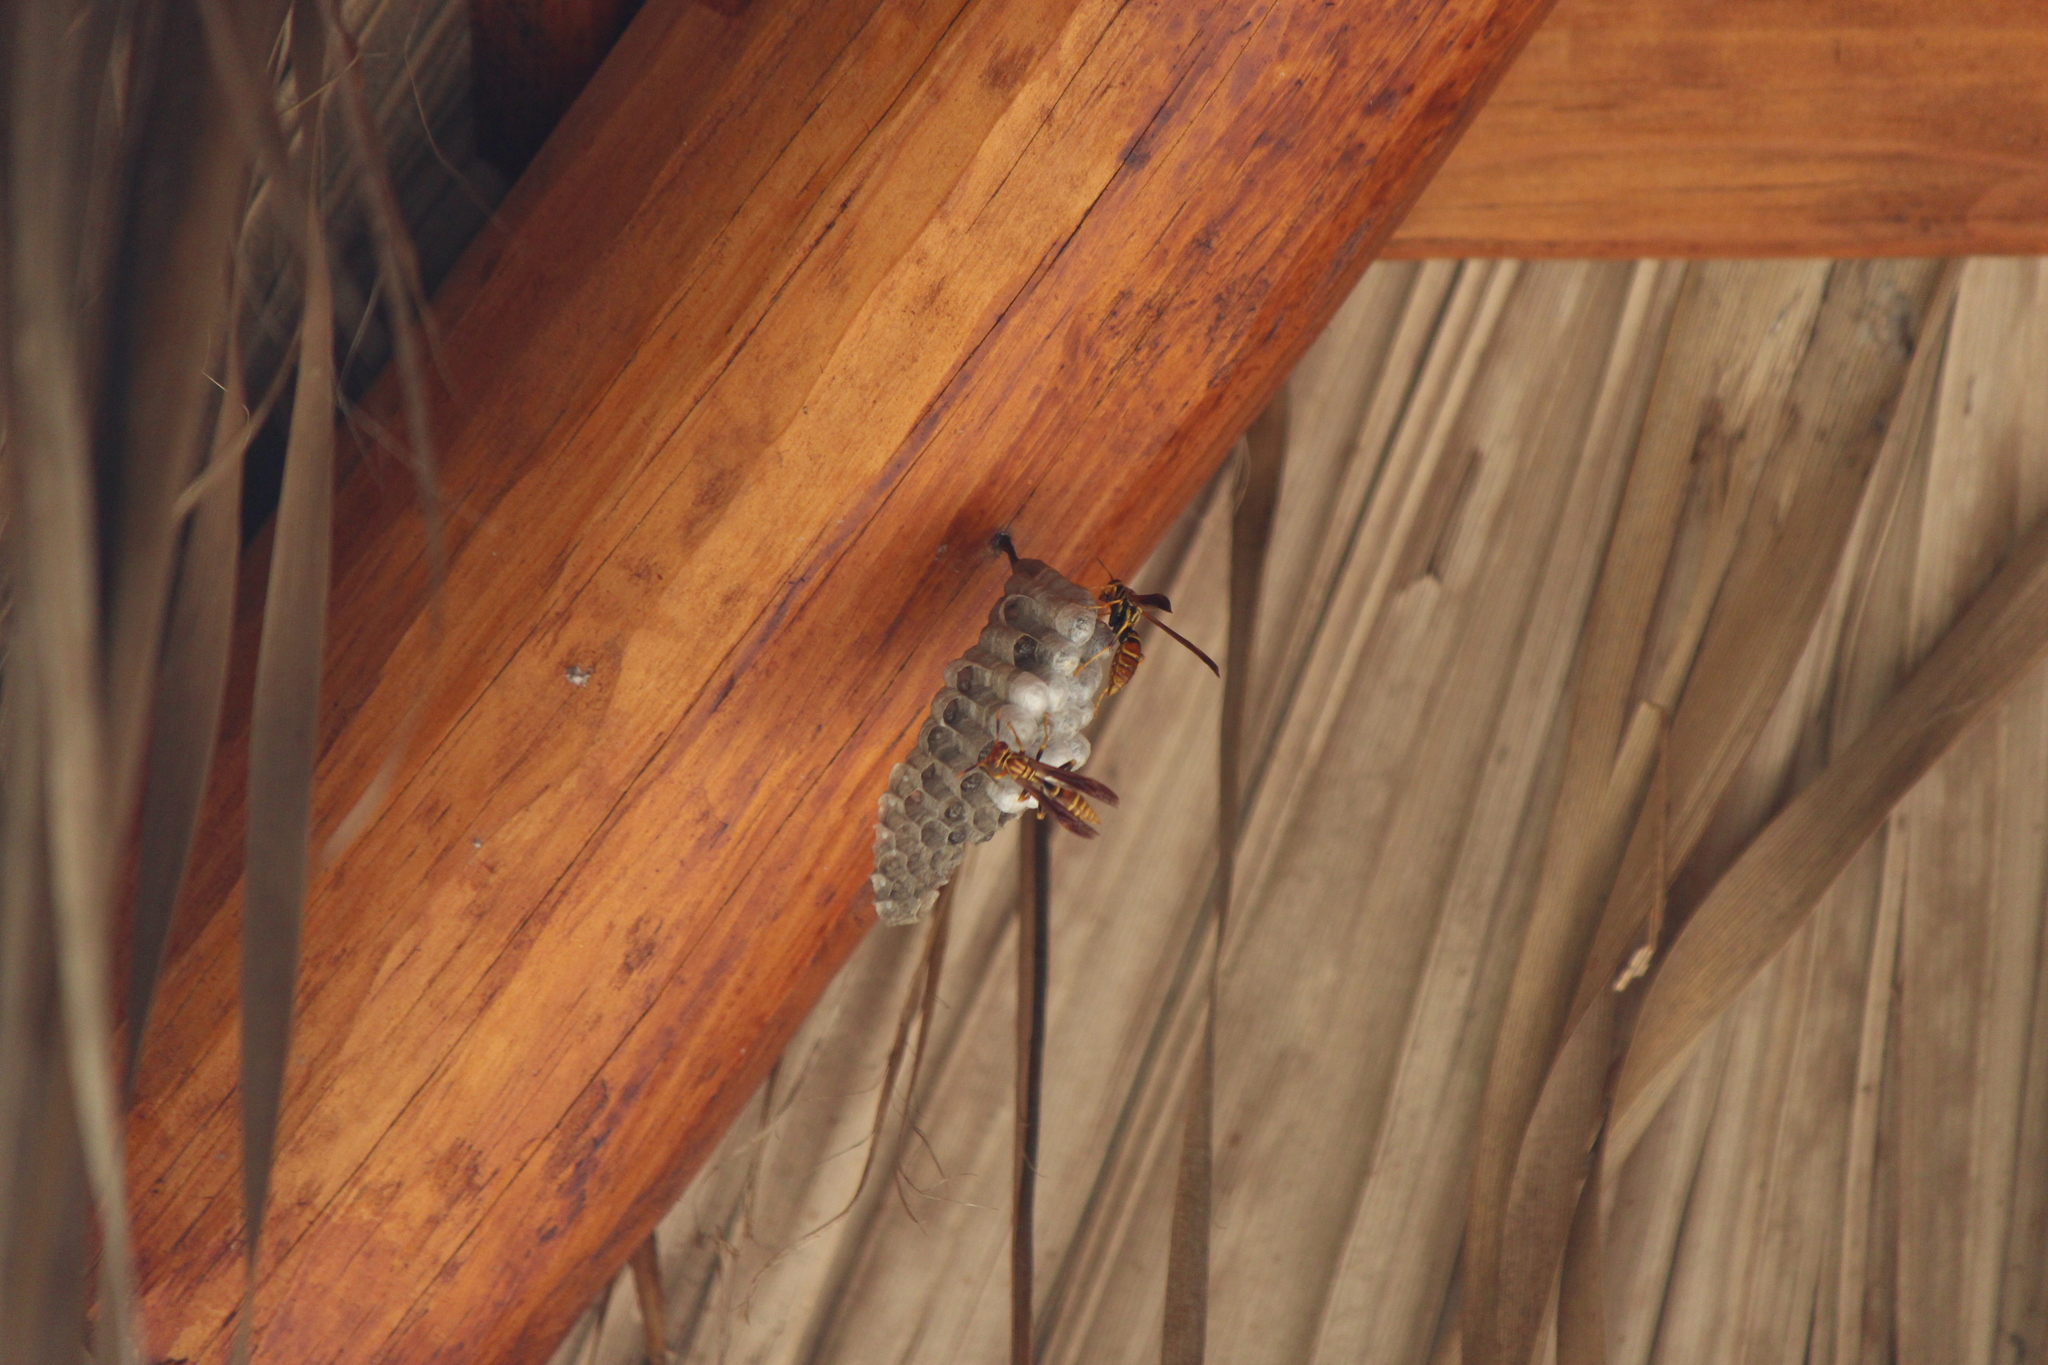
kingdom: Animalia
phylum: Arthropoda
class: Insecta
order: Hymenoptera
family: Eumenidae
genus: Polistes
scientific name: Polistes lineonotus
